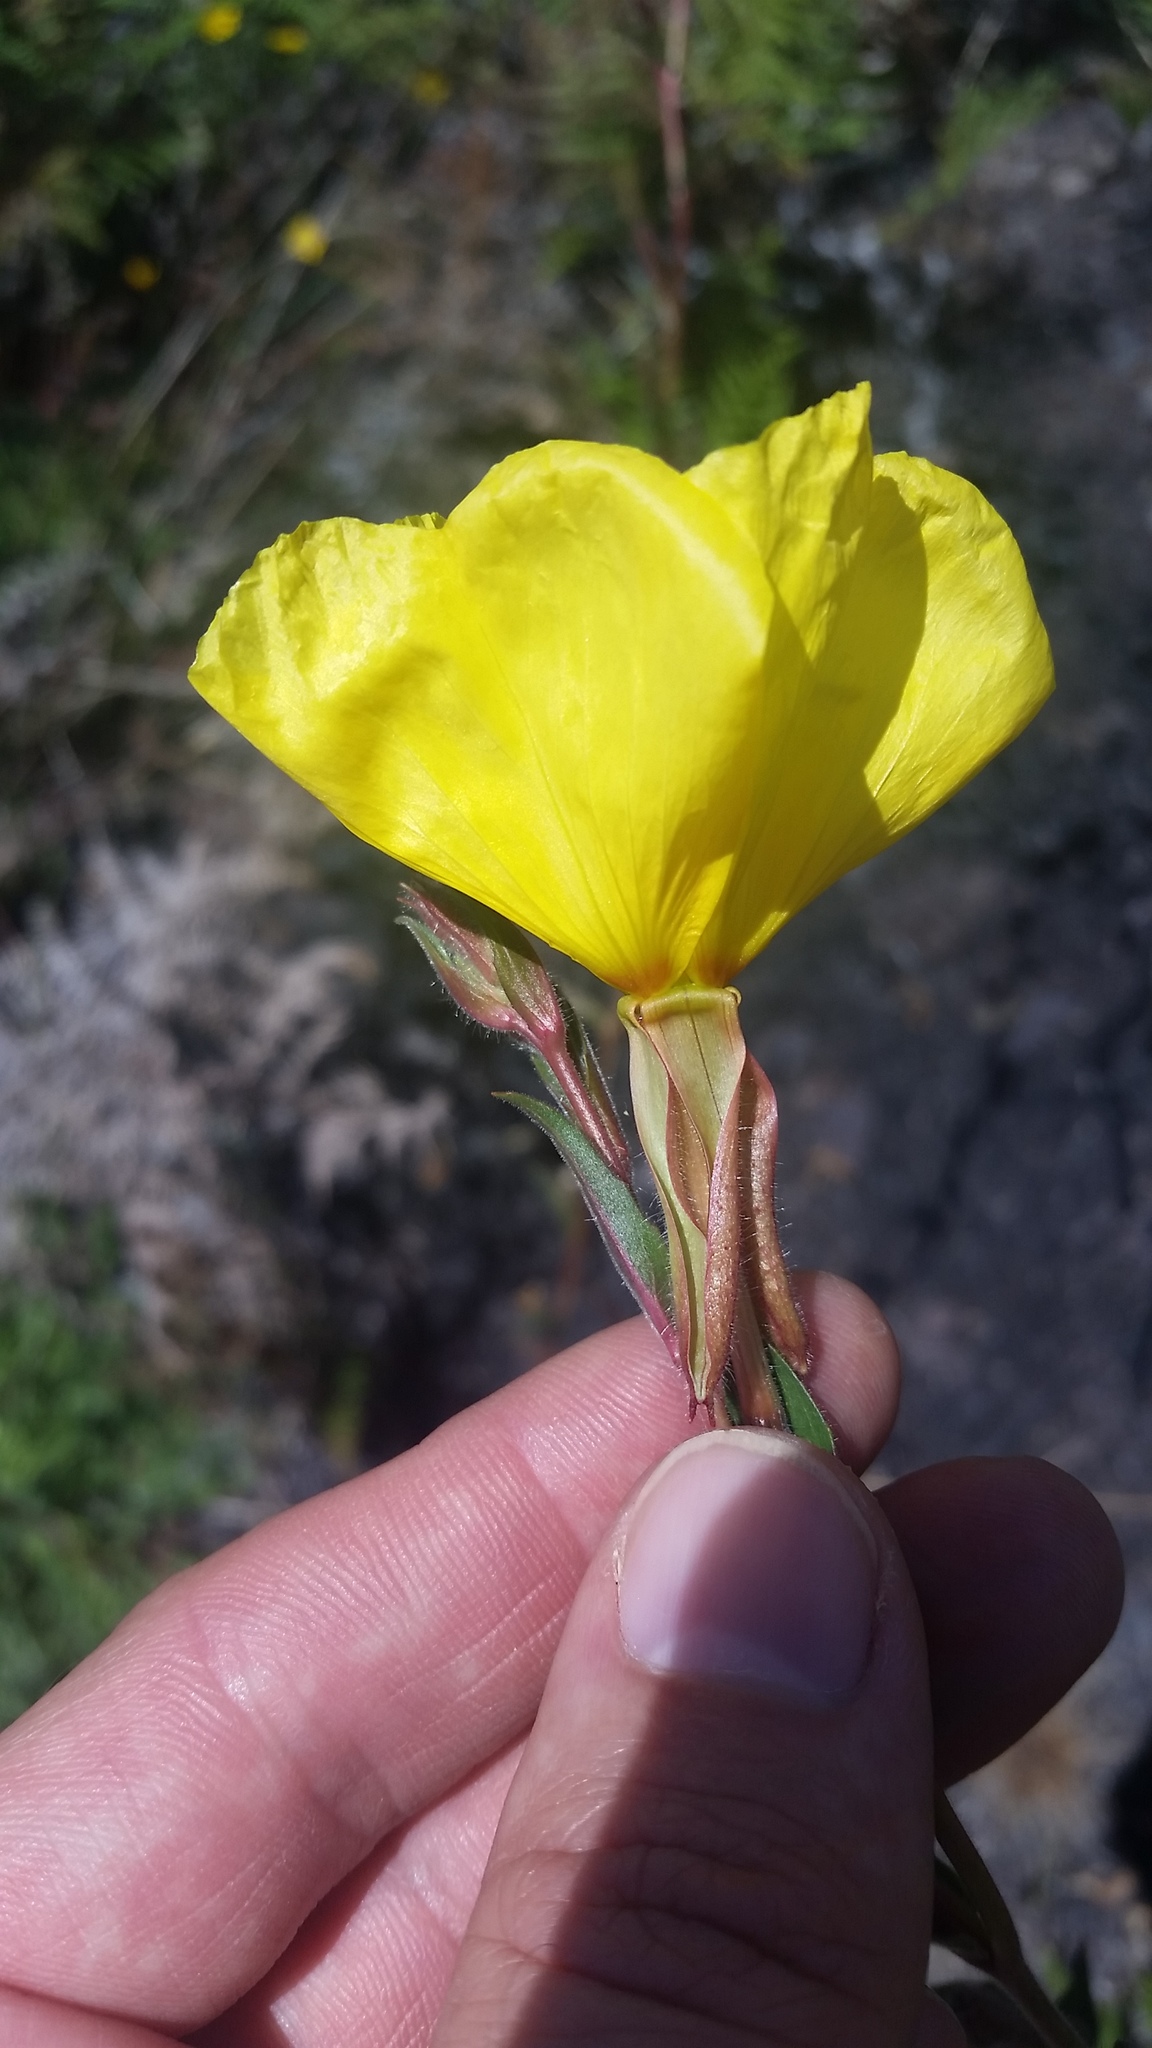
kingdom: Plantae
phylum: Tracheophyta
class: Magnoliopsida
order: Myrtales
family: Onagraceae
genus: Oenothera
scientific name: Oenothera stricta
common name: Fragrant evening-primrose
